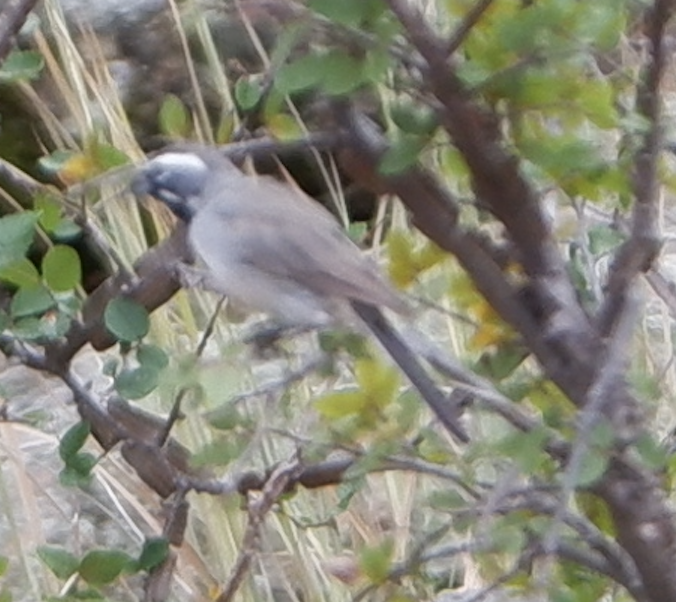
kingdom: Animalia
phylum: Chordata
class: Aves
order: Passeriformes
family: Passerellidae
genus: Amphispiza
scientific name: Amphispiza bilineata
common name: Black-throated sparrow
